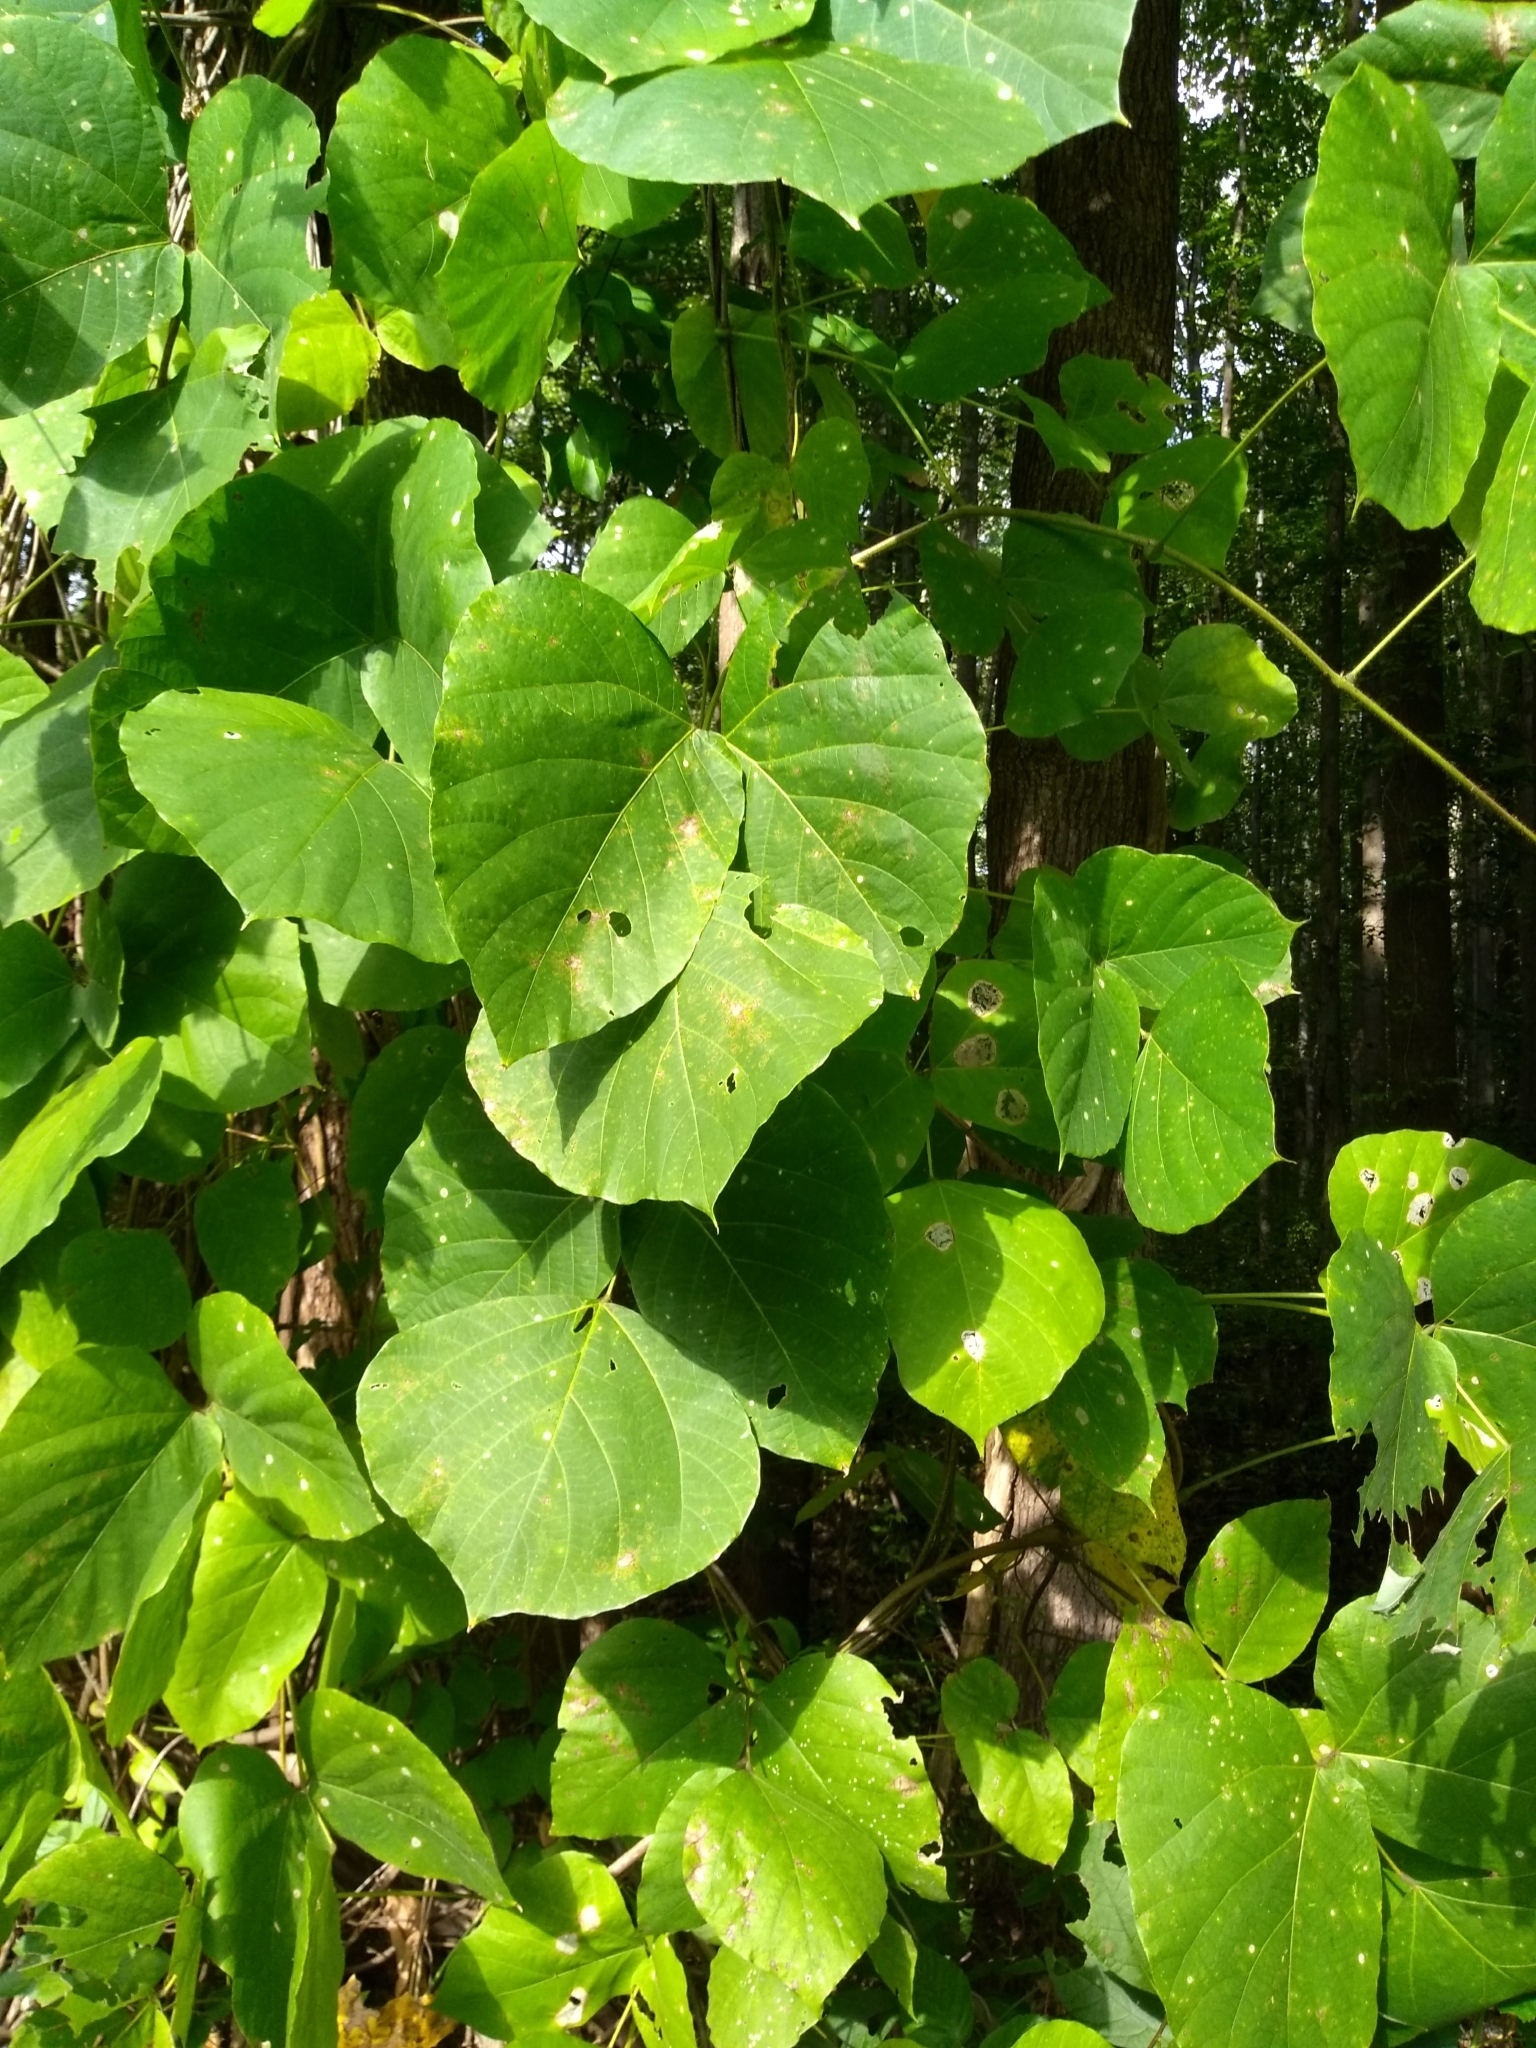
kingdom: Plantae
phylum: Tracheophyta
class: Magnoliopsida
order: Fabales
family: Fabaceae
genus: Pueraria
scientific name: Pueraria montana
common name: Kudzu
